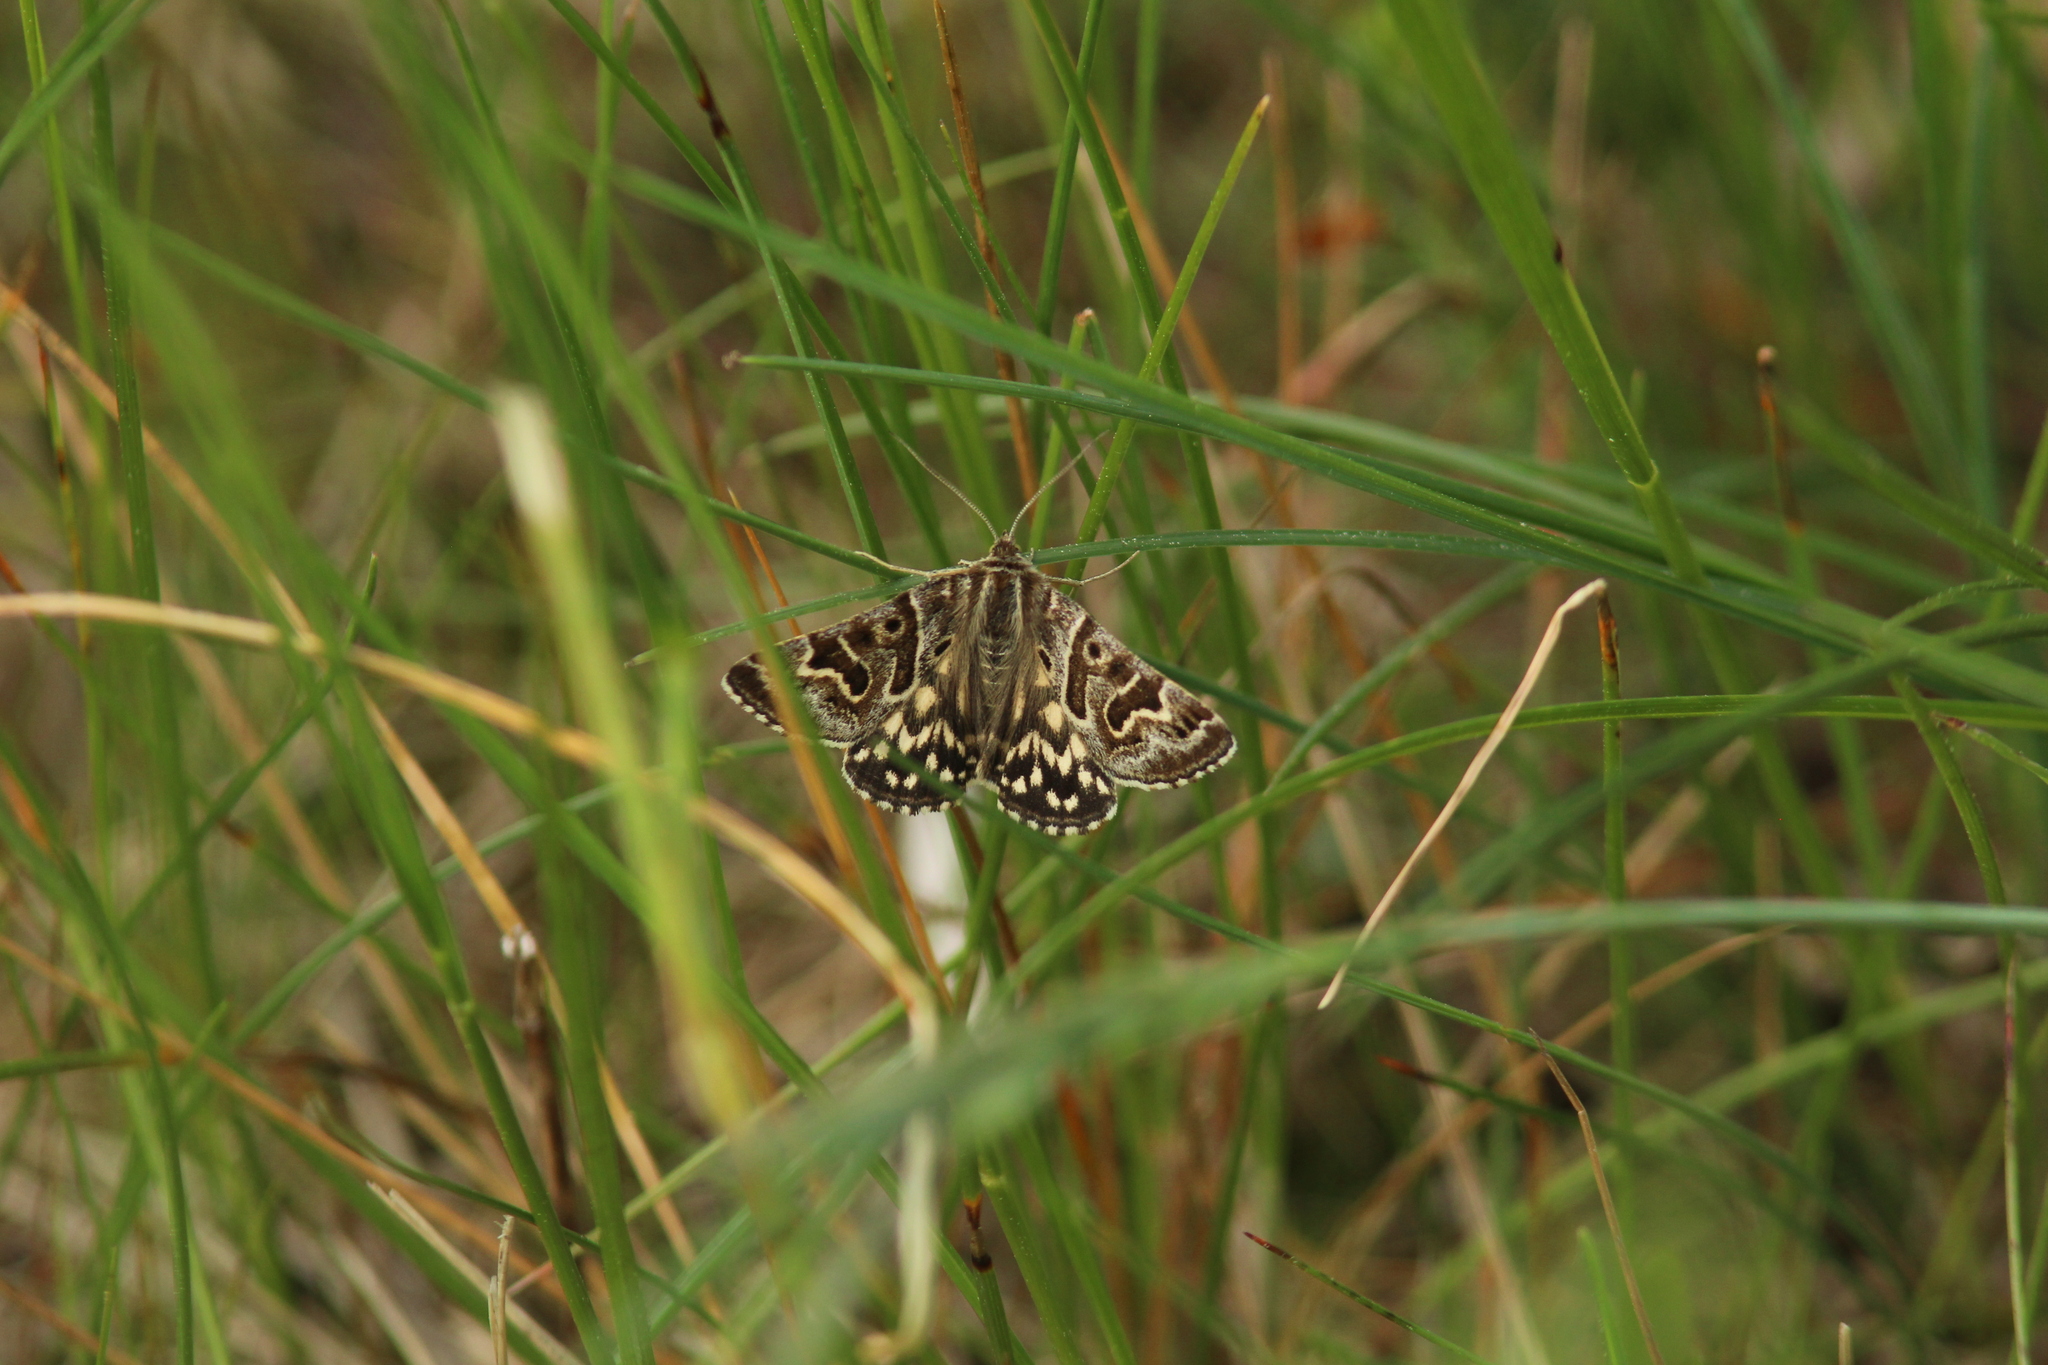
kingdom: Animalia
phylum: Arthropoda
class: Insecta
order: Lepidoptera
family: Erebidae
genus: Callistege
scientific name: Callistege mi
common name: Mother shipton
